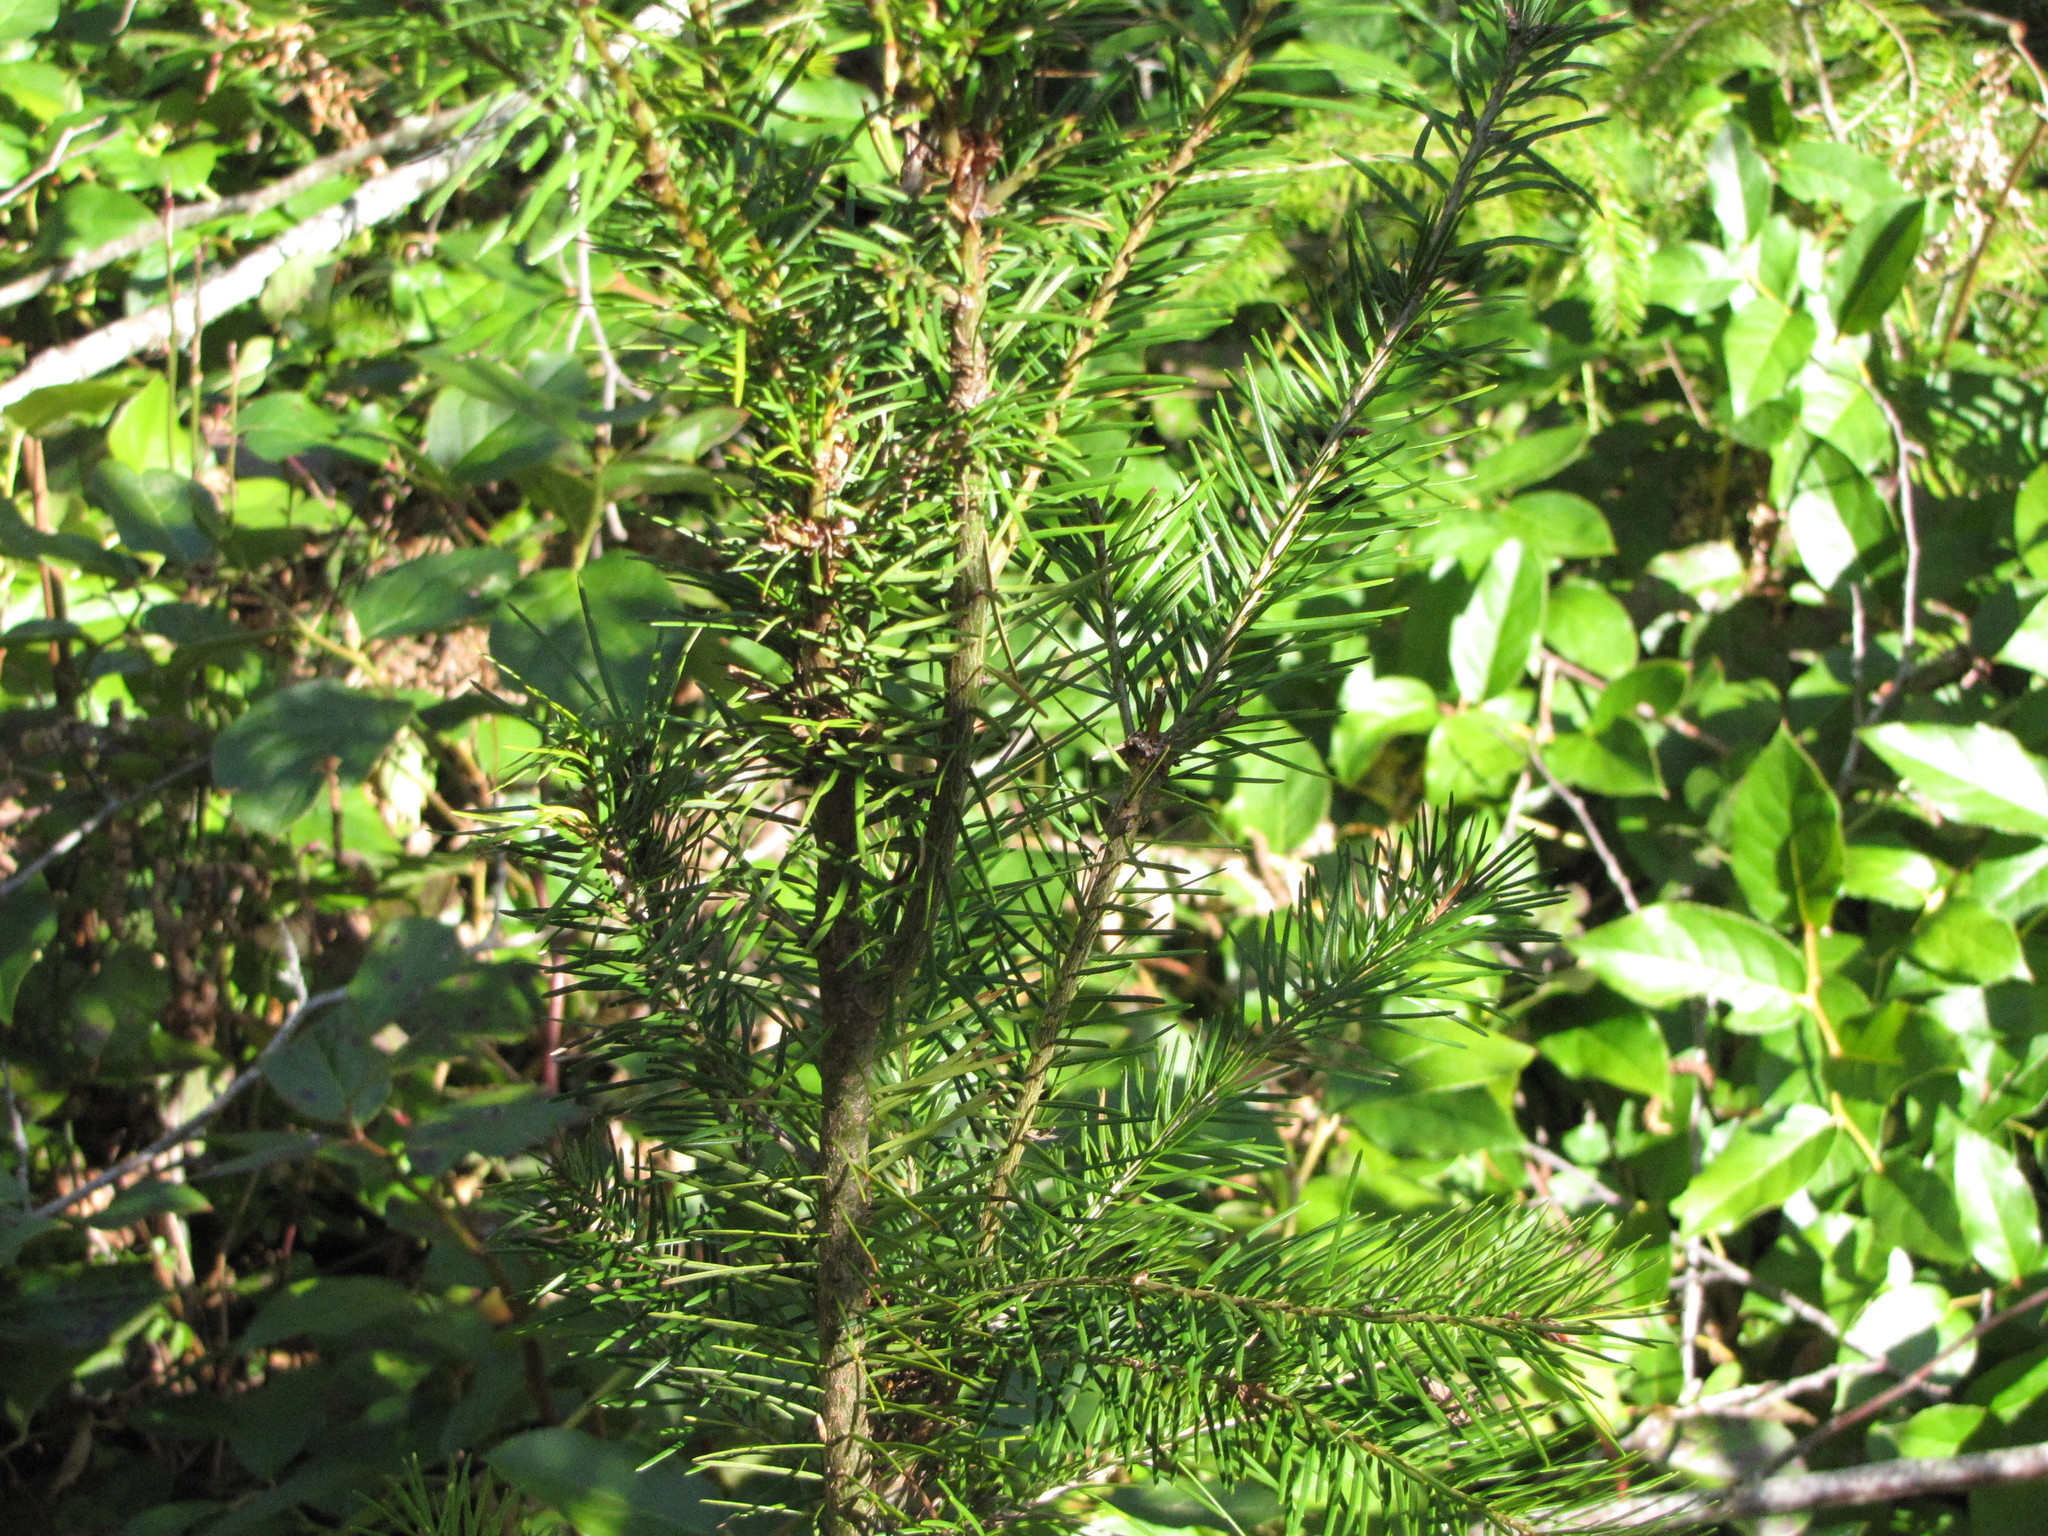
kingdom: Plantae
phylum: Tracheophyta
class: Pinopsida
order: Pinales
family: Pinaceae
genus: Pseudotsuga
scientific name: Pseudotsuga menziesii
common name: Douglas fir
